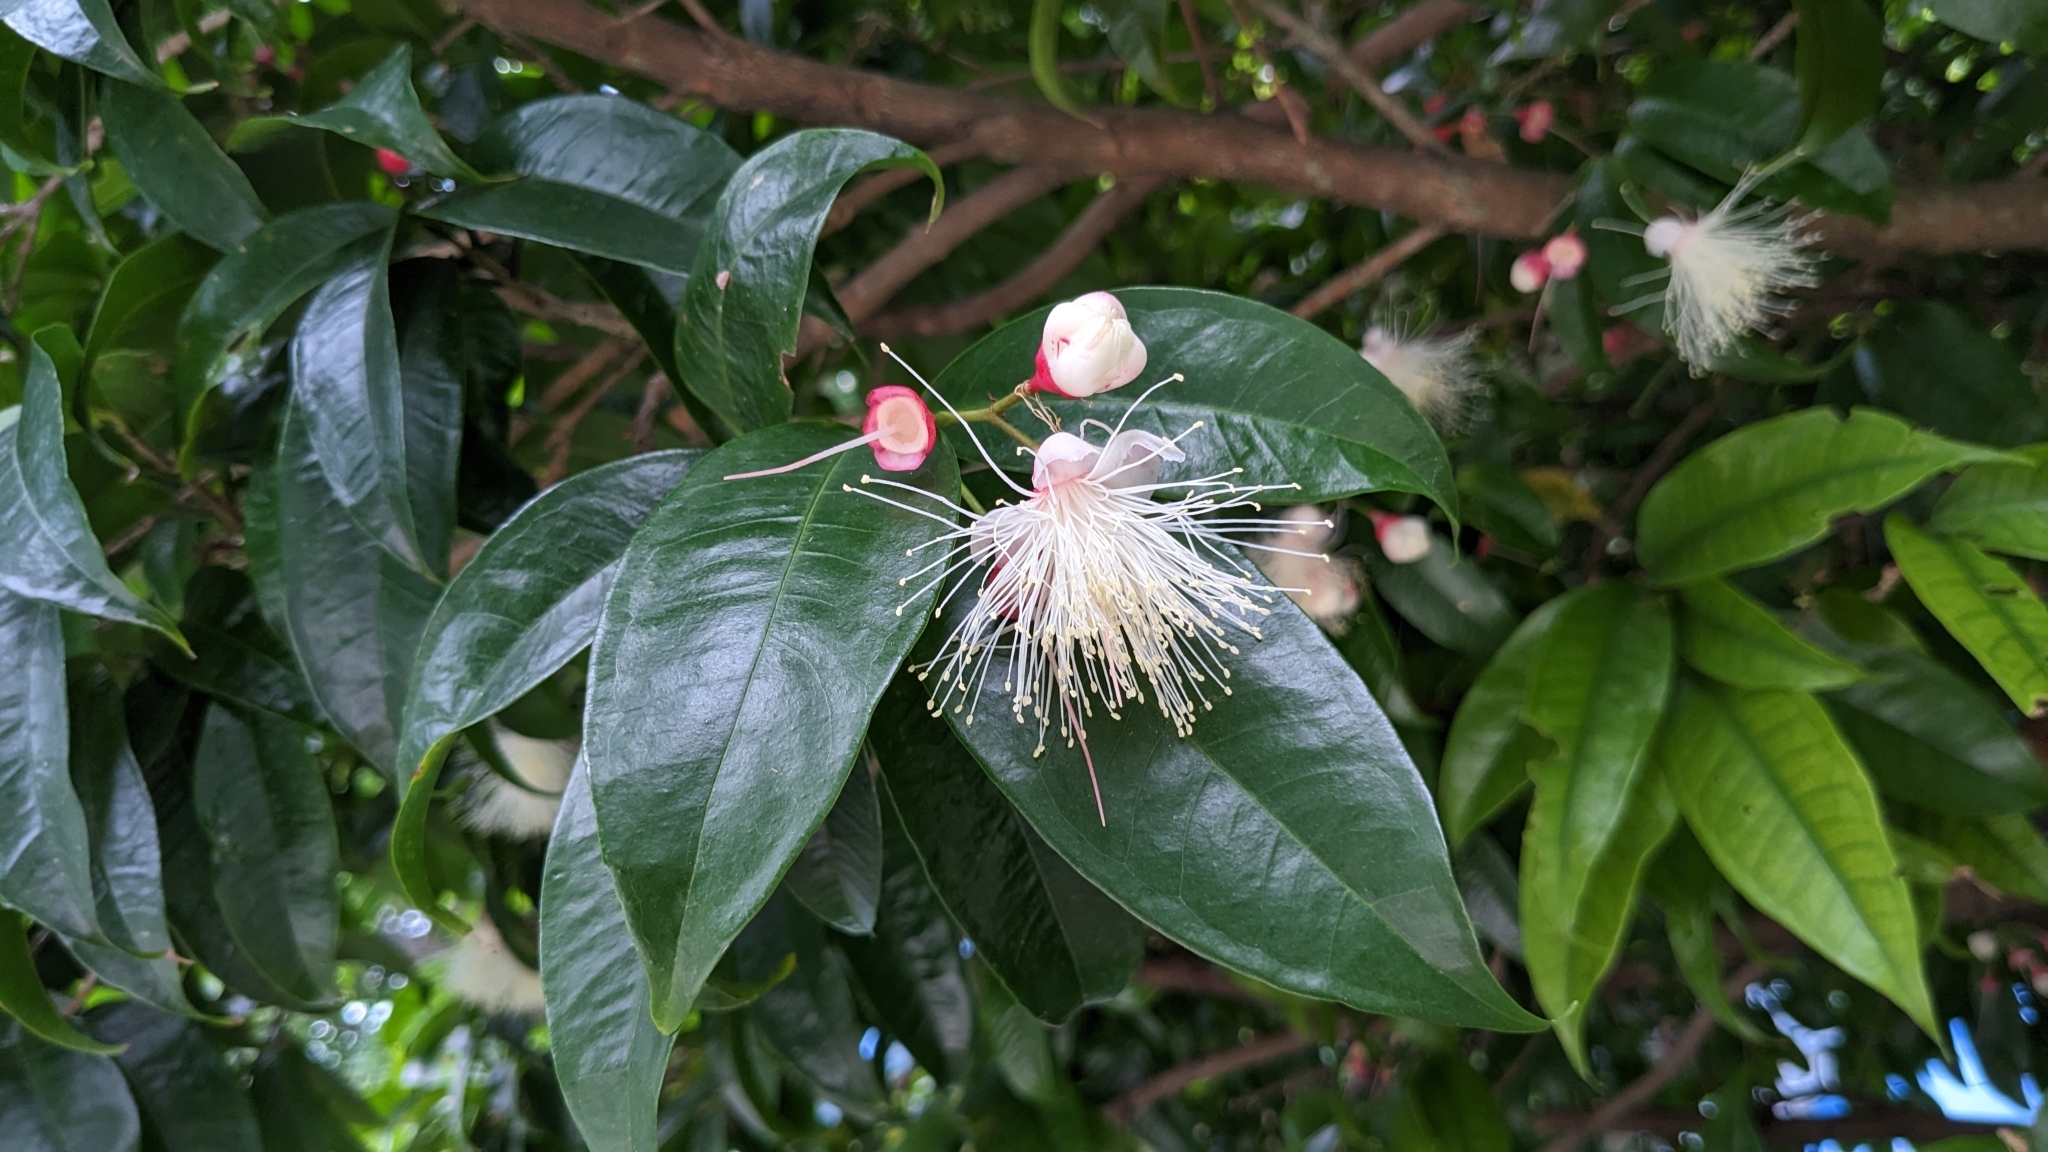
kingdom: Plantae
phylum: Tracheophyta
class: Magnoliopsida
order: Myrtales
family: Myrtaceae
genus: Syzygium
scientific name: Syzygium tripinnatum
